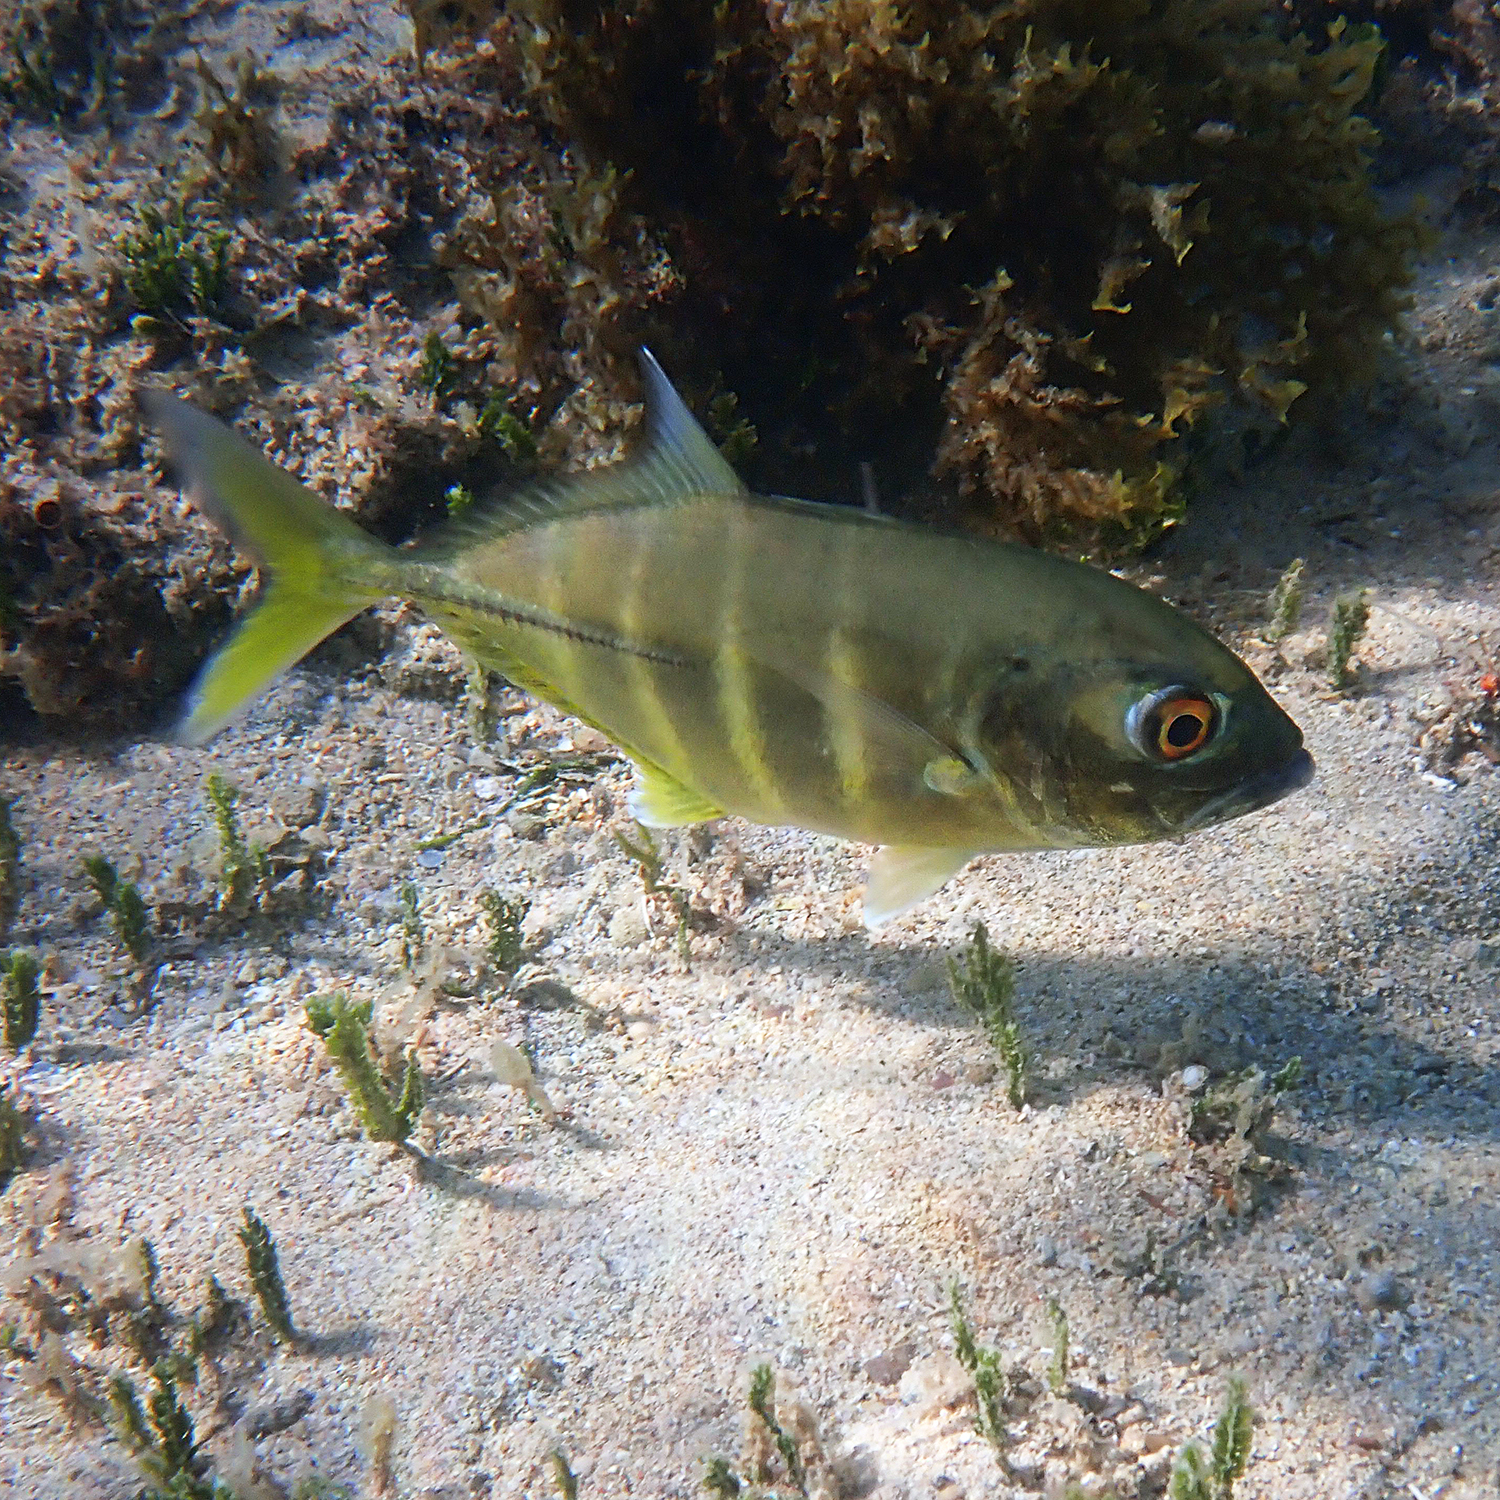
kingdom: Animalia
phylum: Chordata
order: Perciformes
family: Carangidae
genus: Caranx
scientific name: Caranx sexfasciatus
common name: Bigeye trevally
